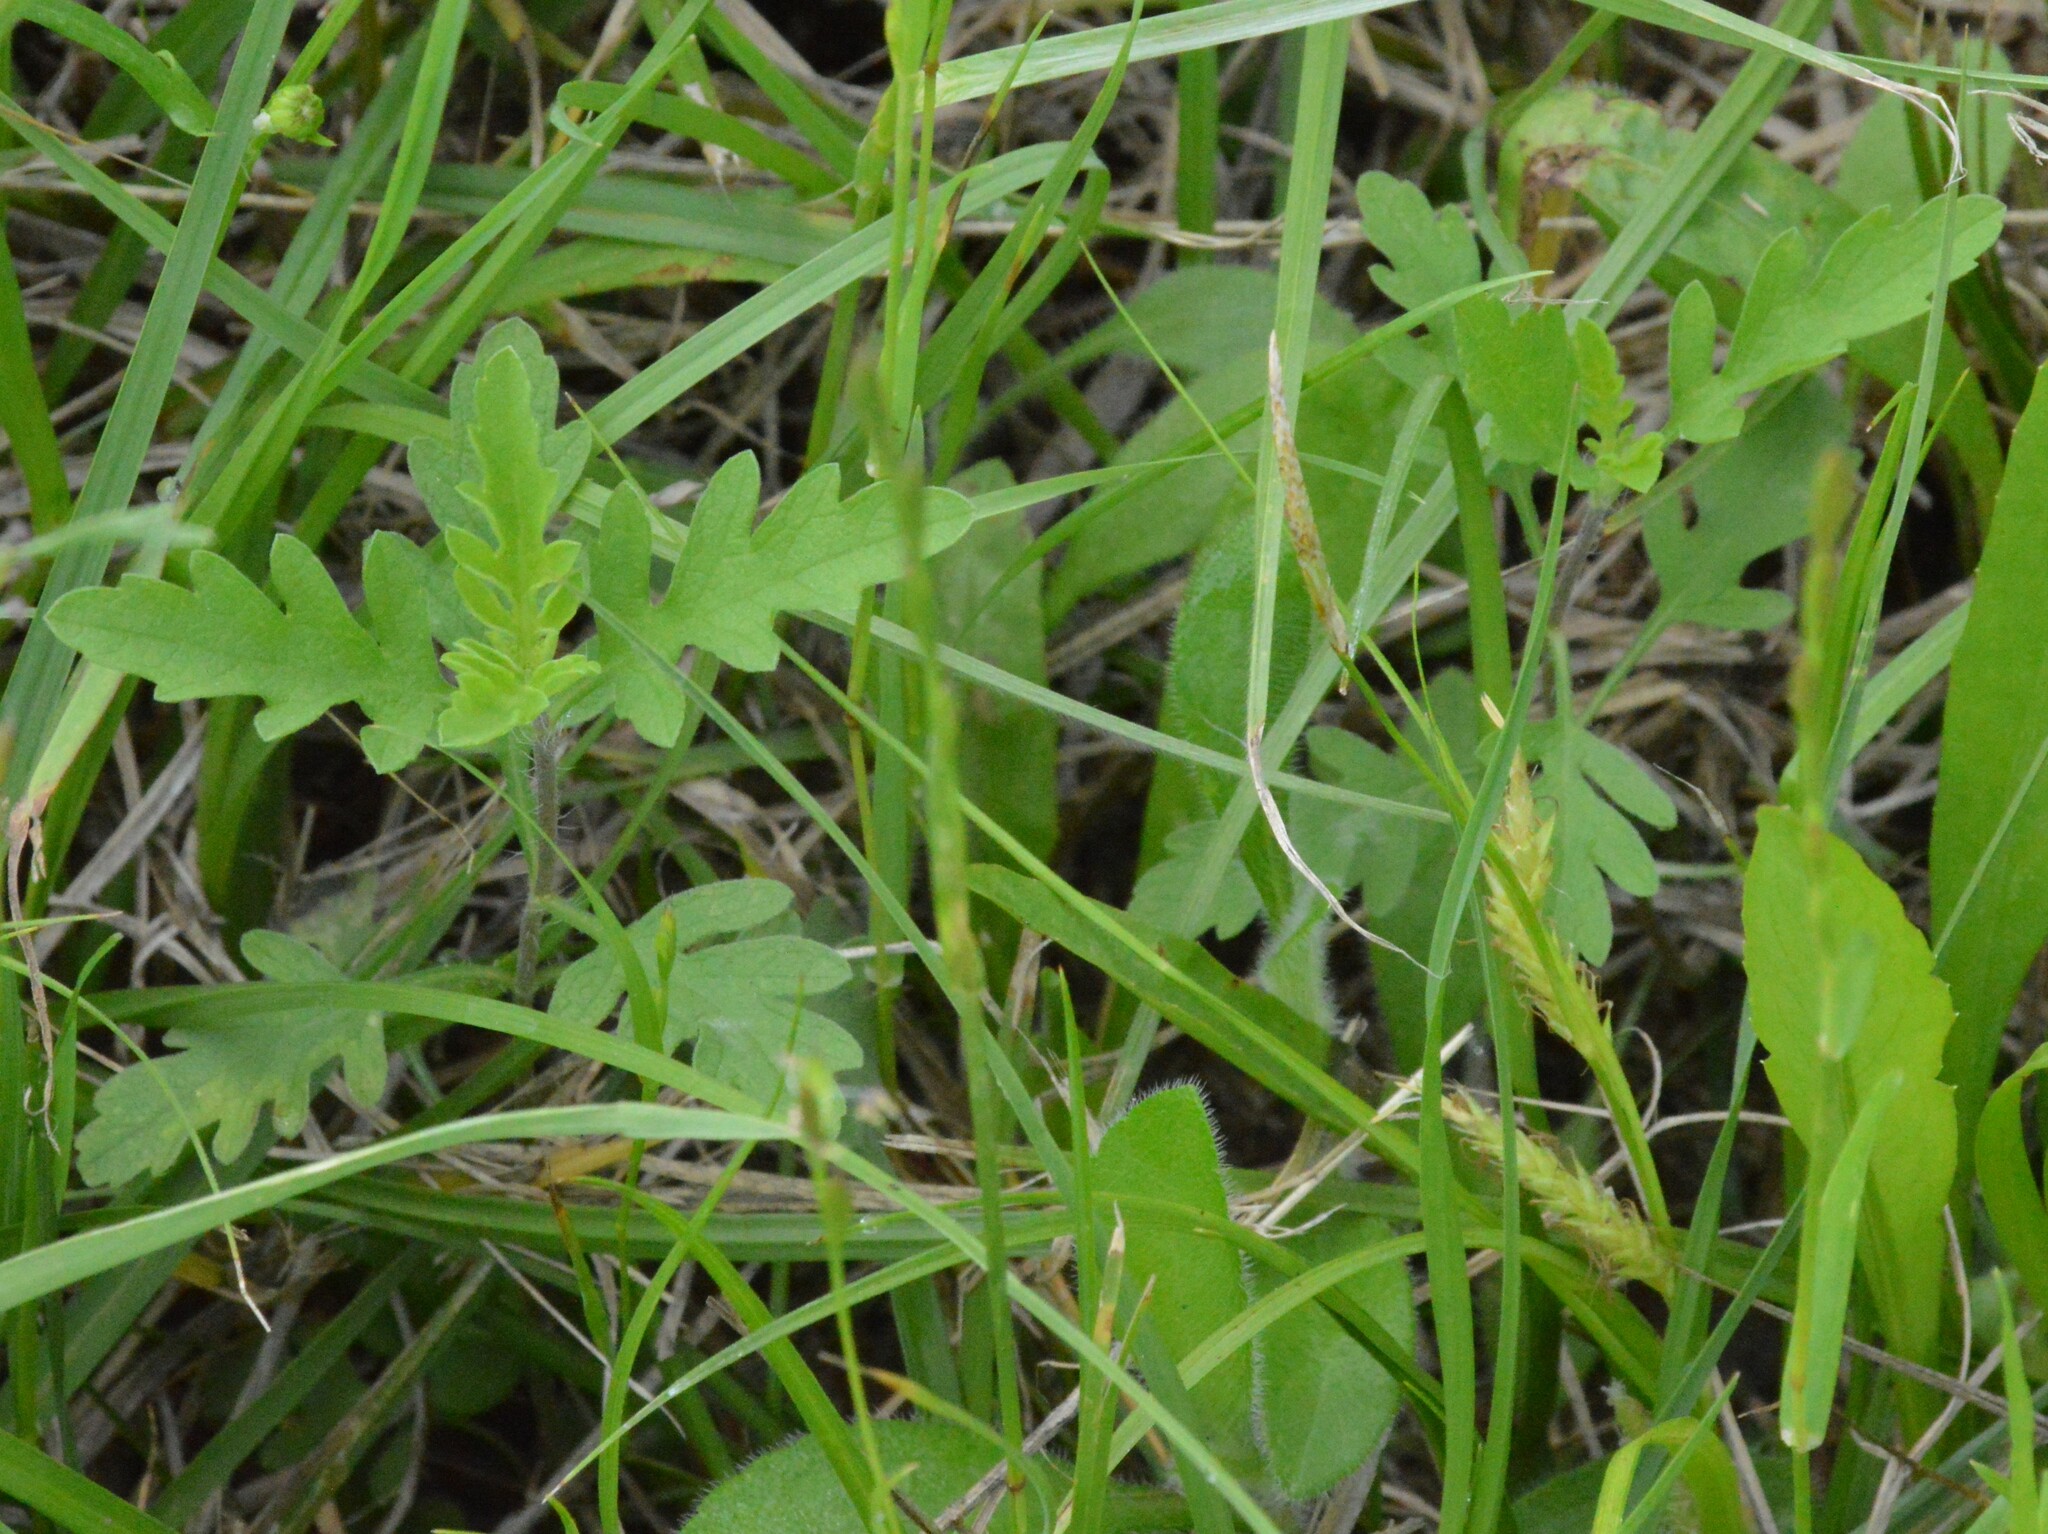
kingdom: Plantae
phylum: Tracheophyta
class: Magnoliopsida
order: Asterales
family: Asteraceae
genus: Ambrosia
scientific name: Ambrosia psilostachya
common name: Perennial ragweed
